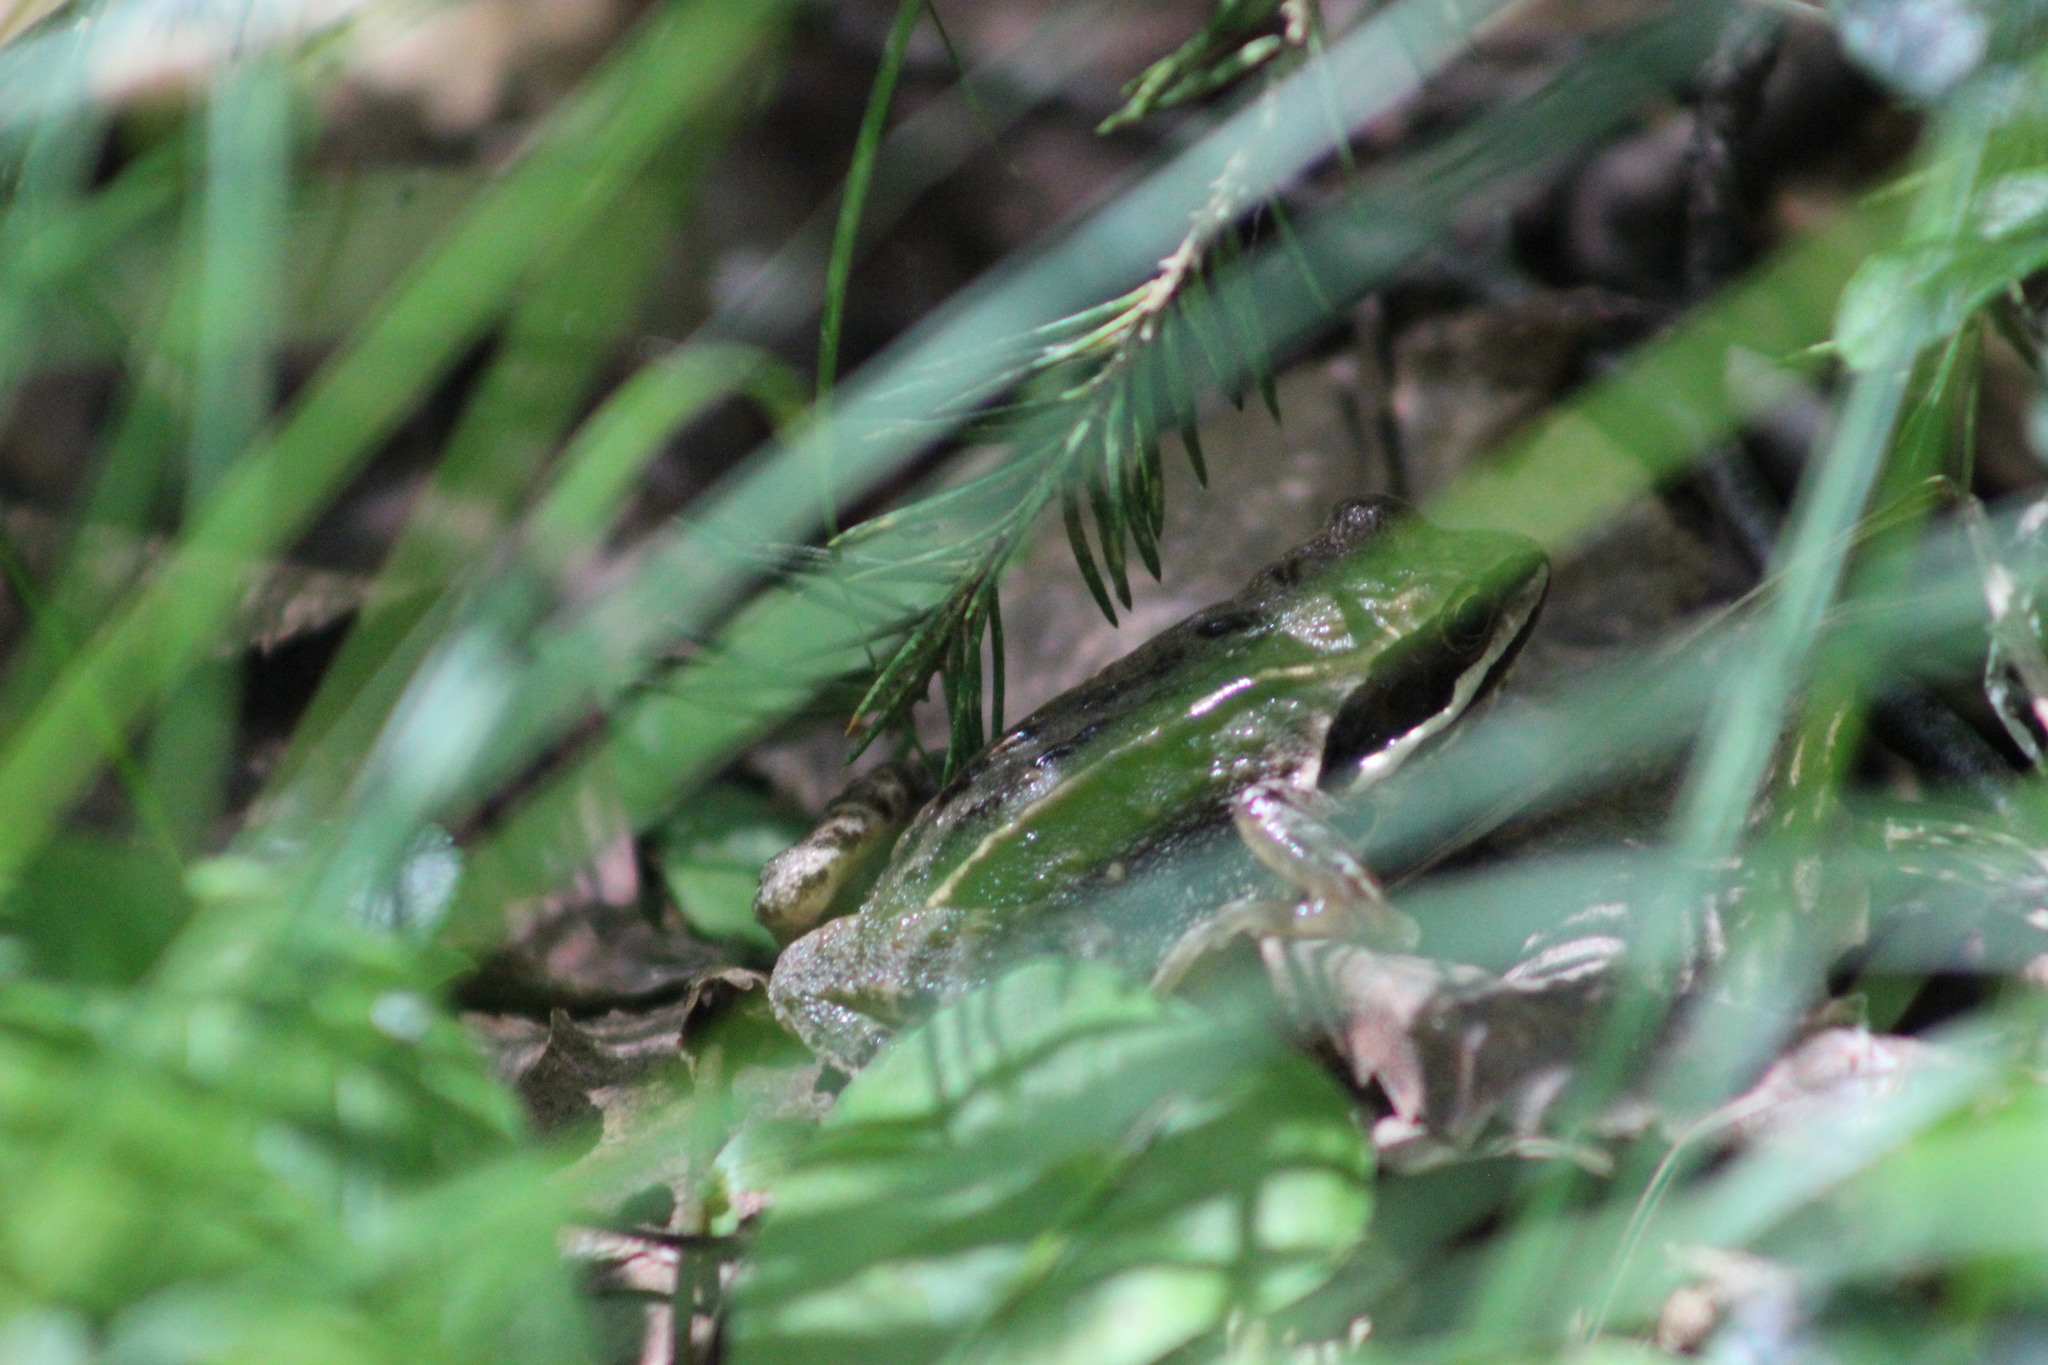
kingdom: Animalia
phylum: Chordata
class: Amphibia
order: Anura
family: Ranidae
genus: Rana
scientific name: Rana arvalis
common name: Moor frog
